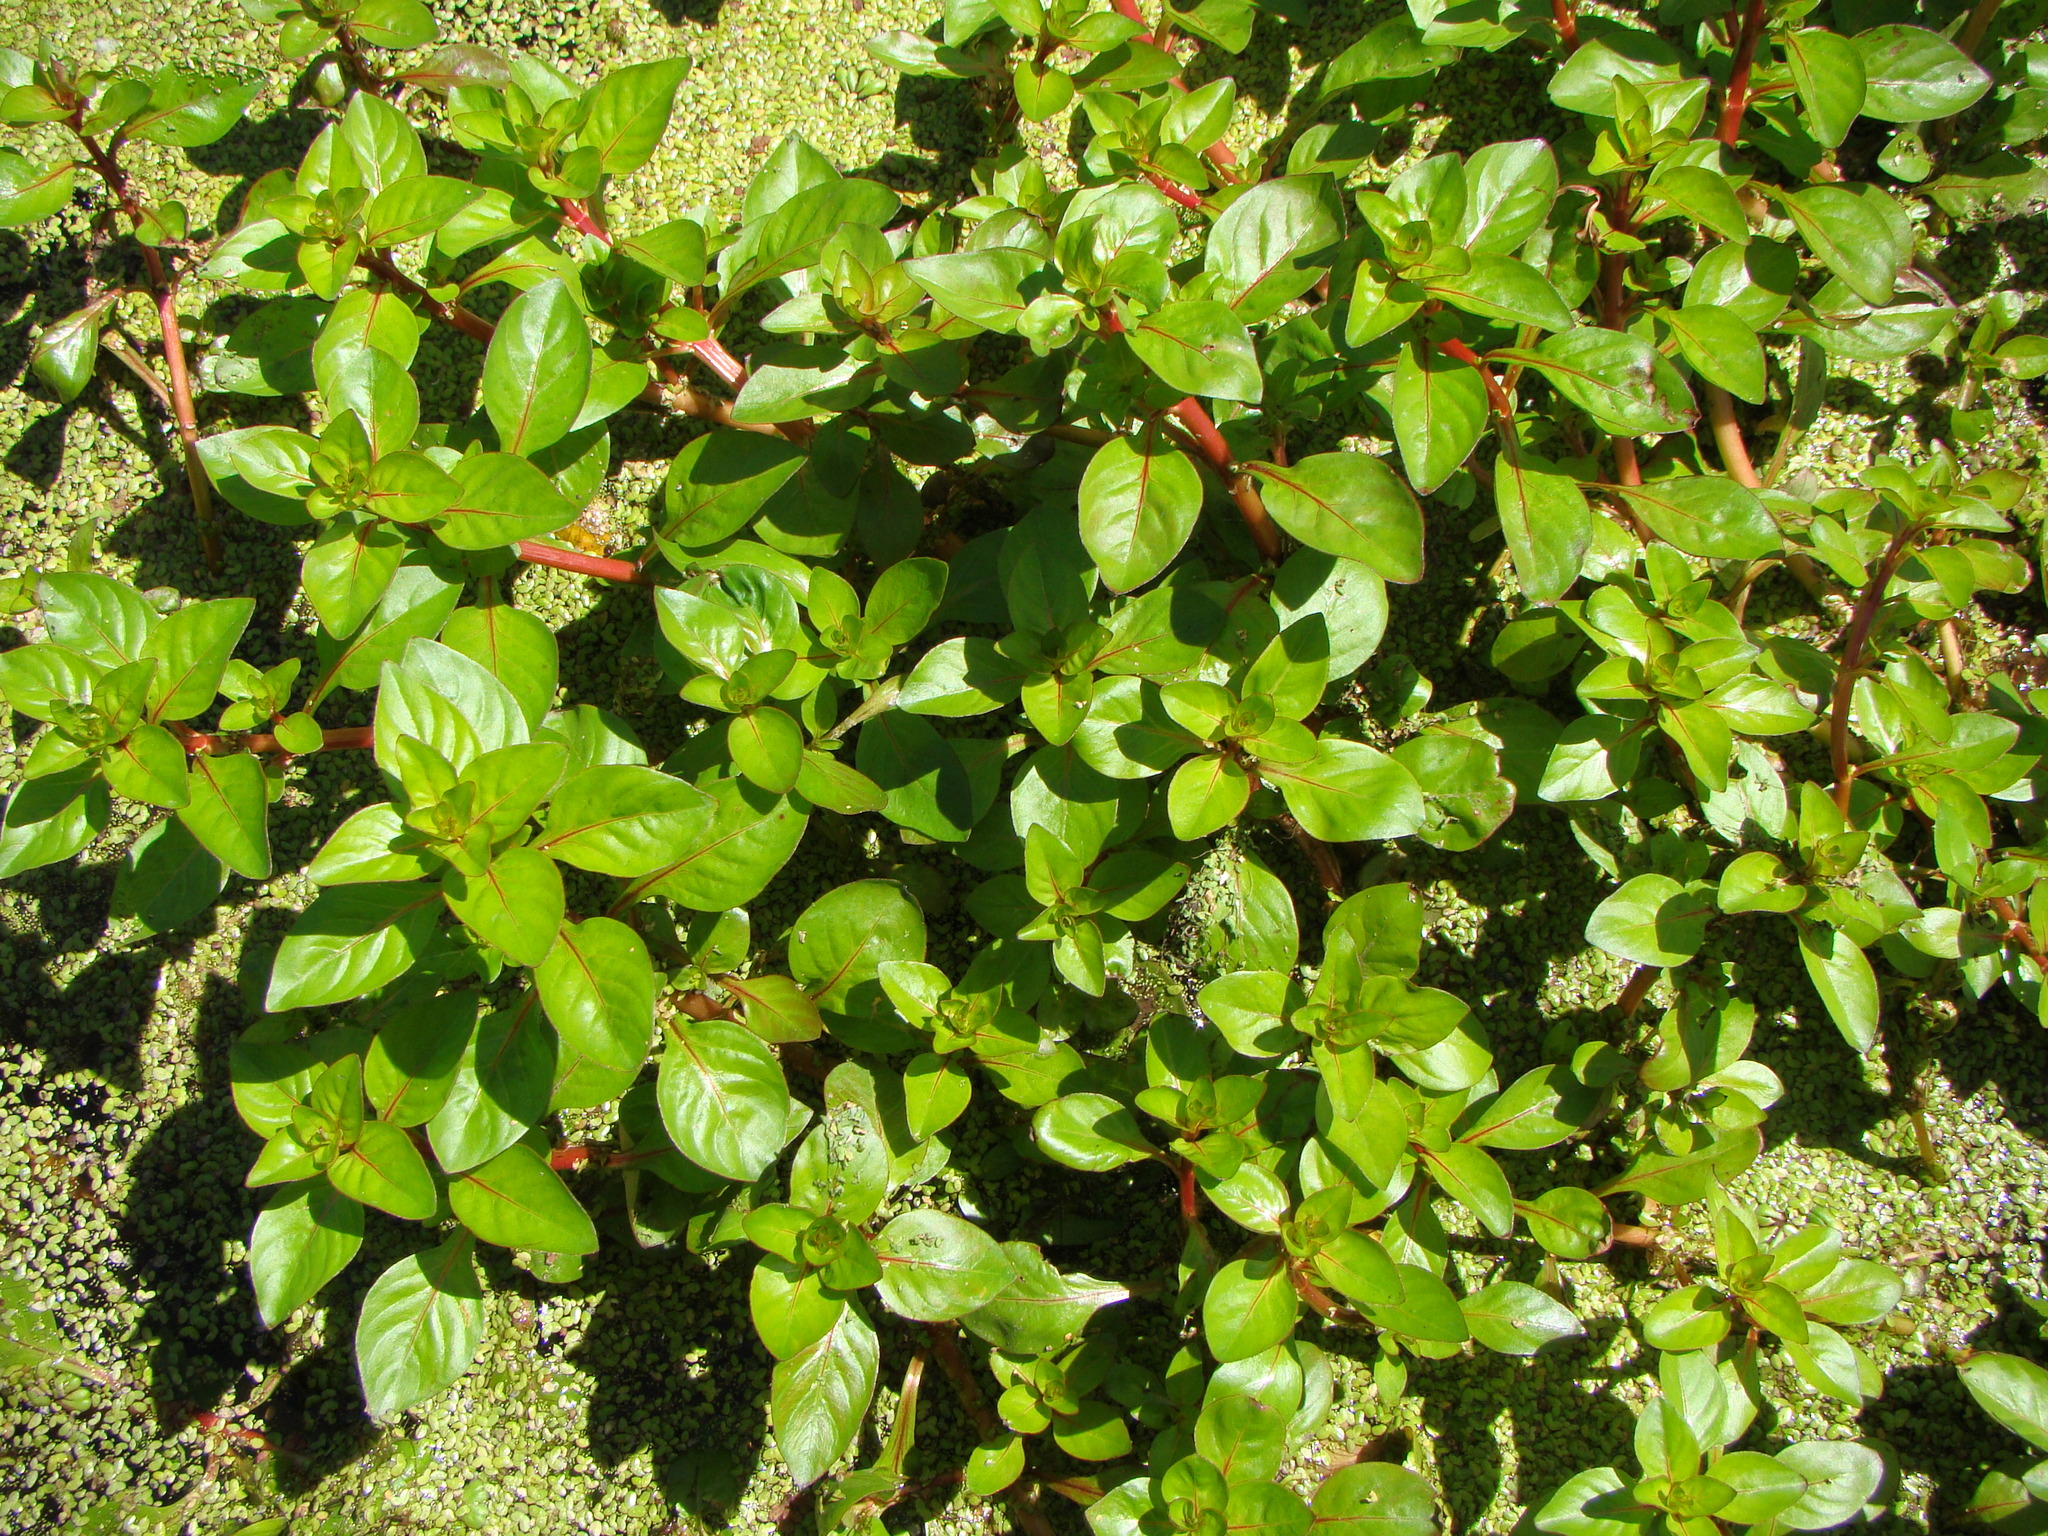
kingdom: Plantae
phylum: Tracheophyta
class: Magnoliopsida
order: Myrtales
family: Onagraceae
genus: Ludwigia
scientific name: Ludwigia palustris
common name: Hampshire-purslane
